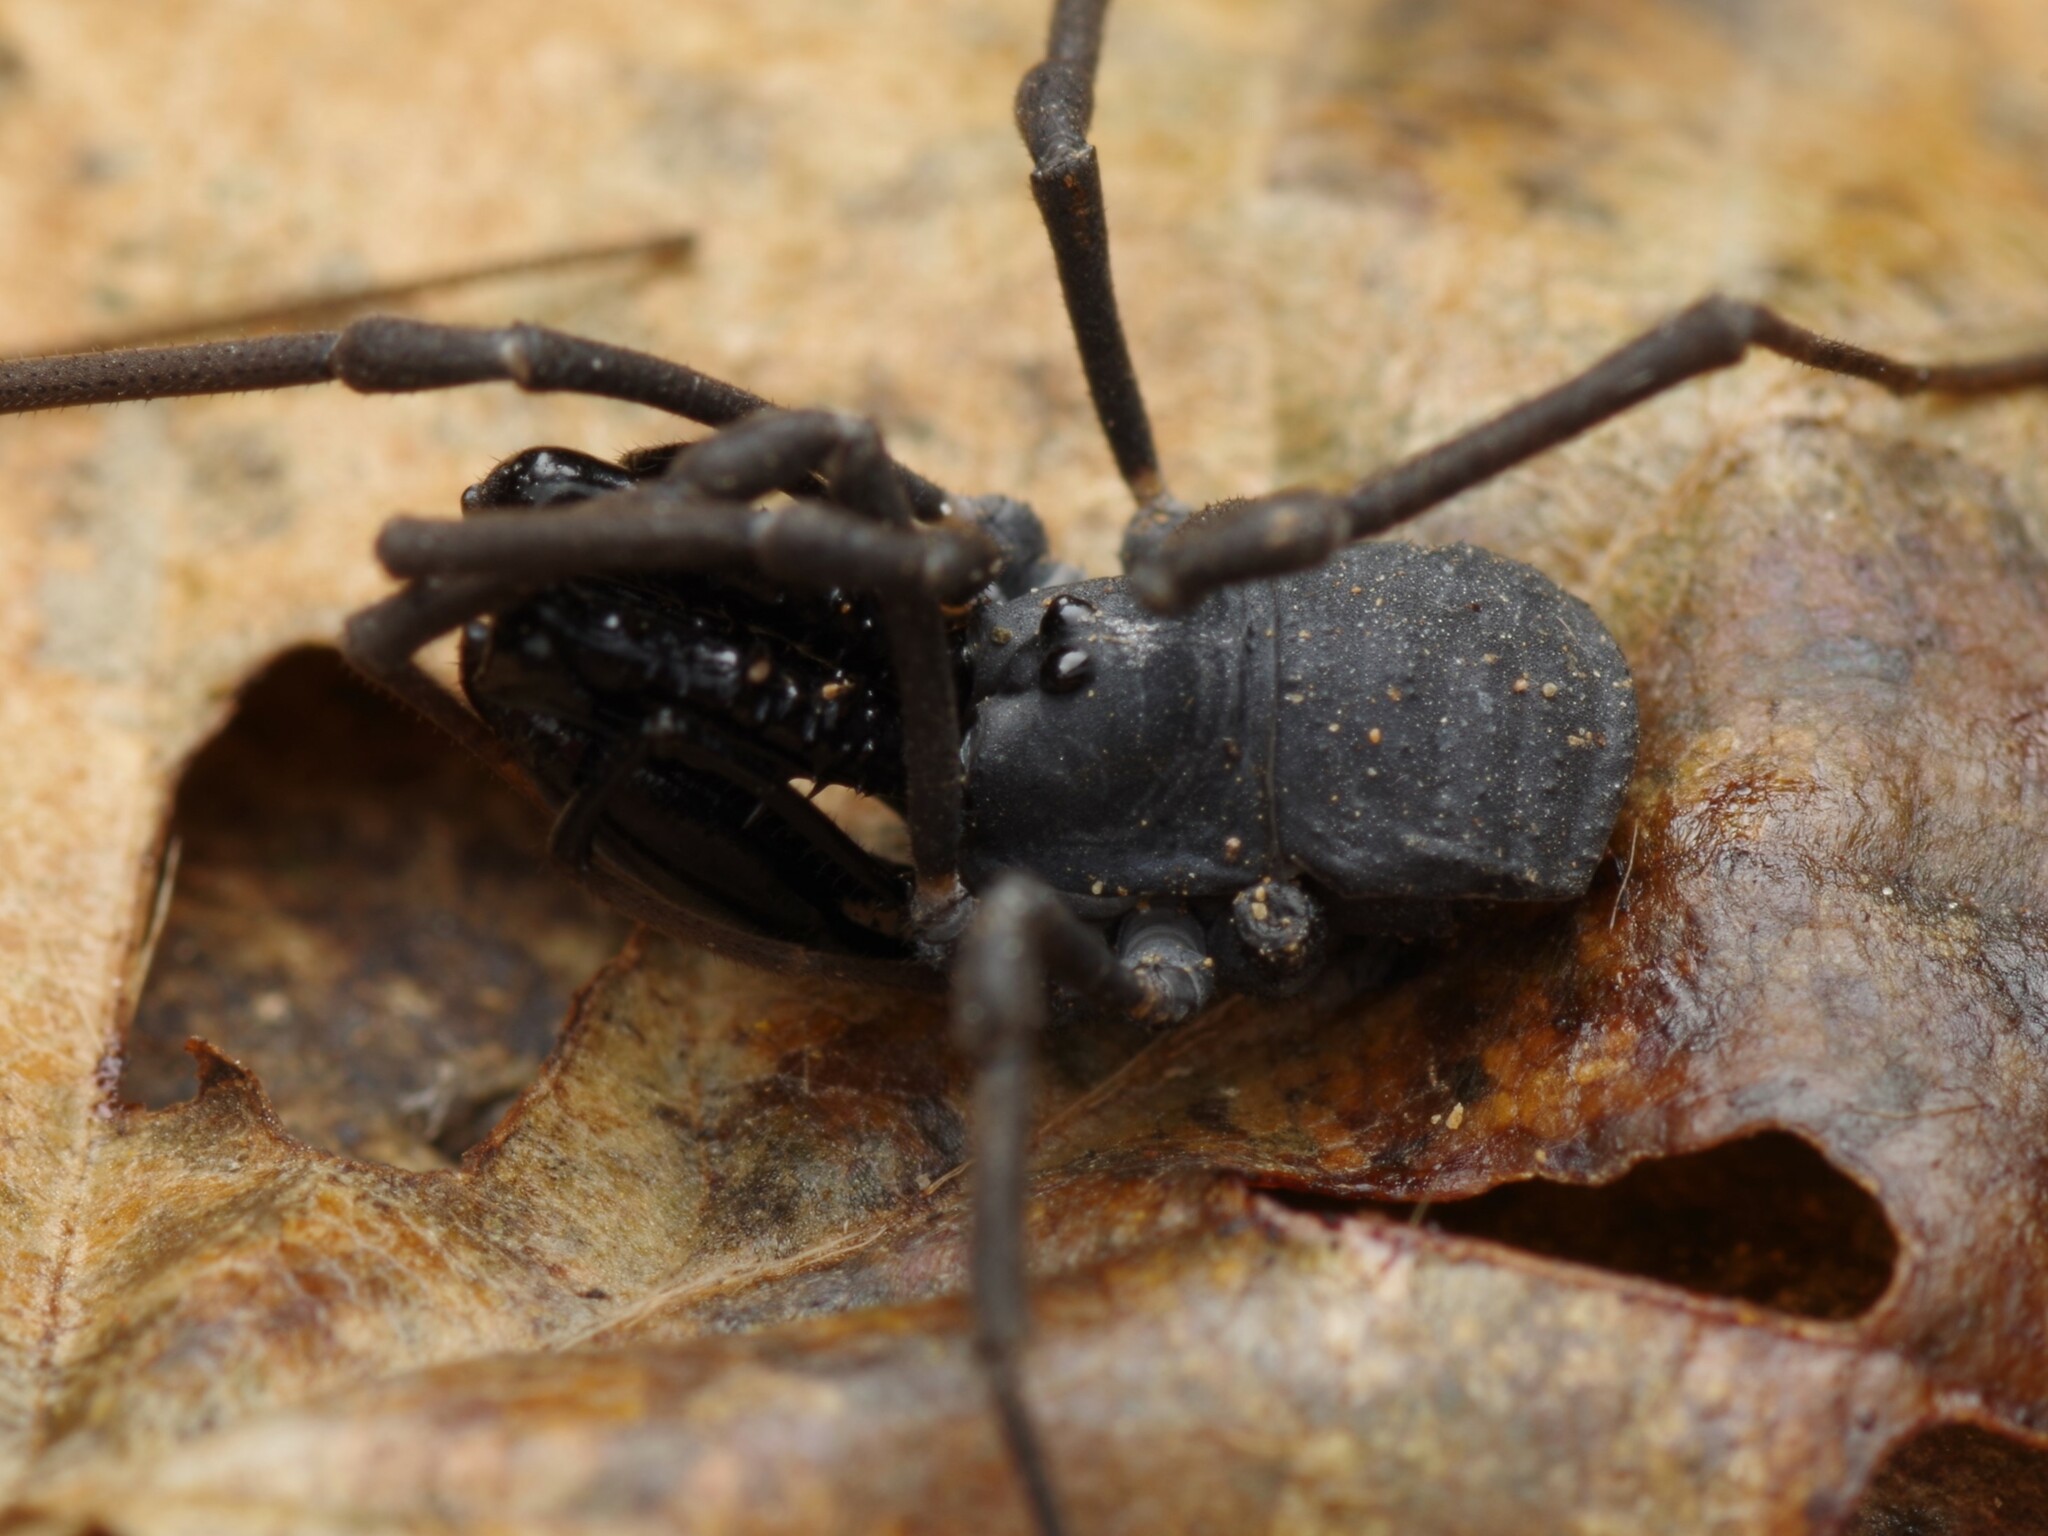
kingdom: Animalia
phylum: Arthropoda
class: Arachnida
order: Opiliones
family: Ischyropsalididae
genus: Ischyropsalis
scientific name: Ischyropsalis luteipes
